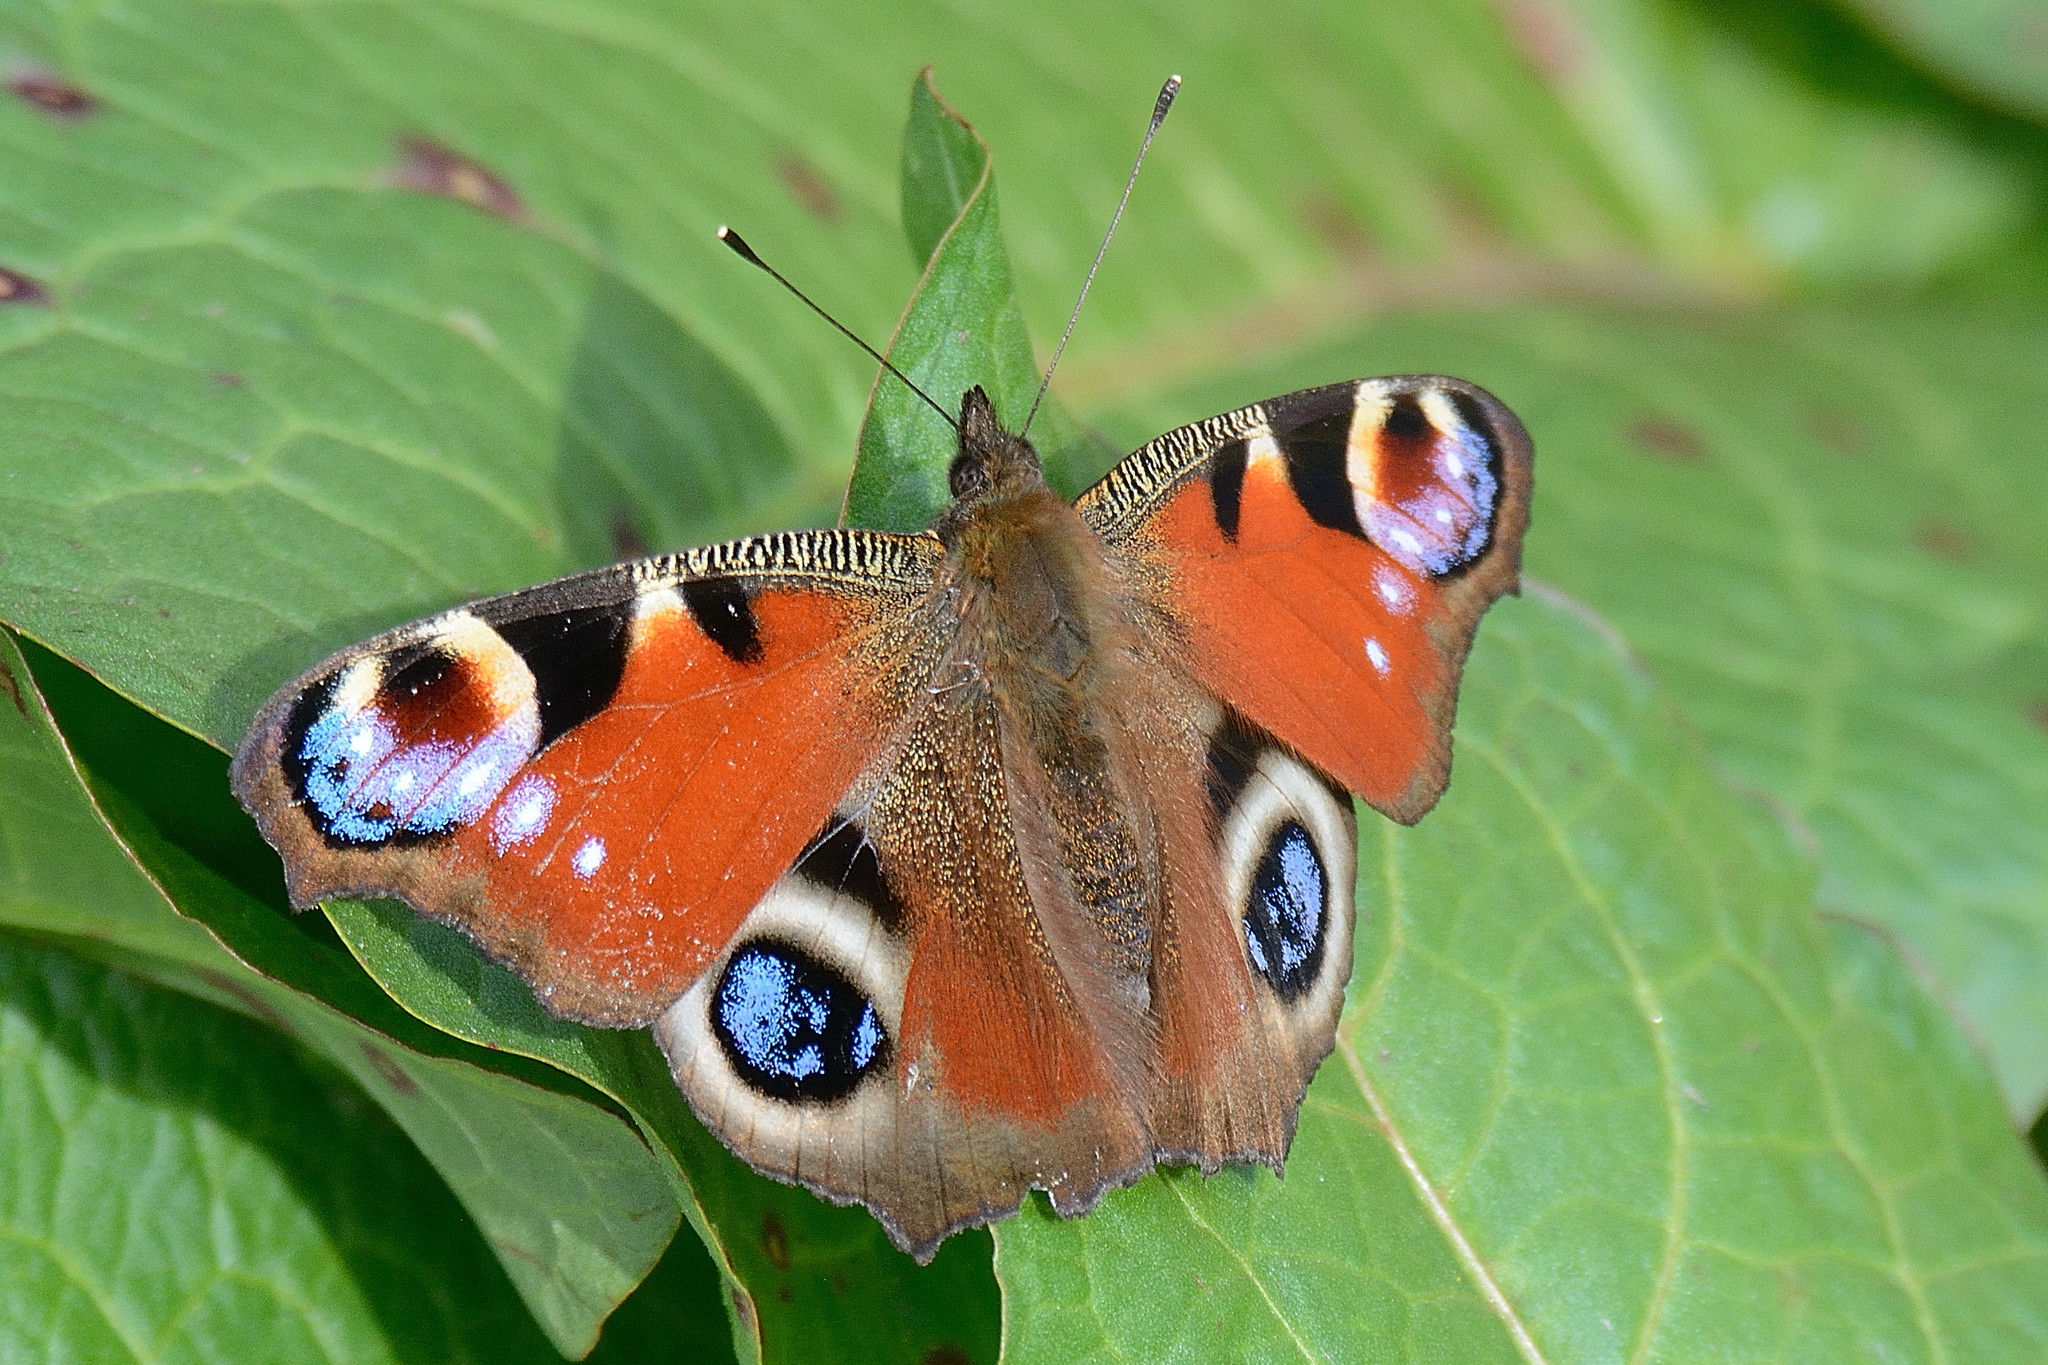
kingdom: Animalia
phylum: Arthropoda
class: Insecta
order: Lepidoptera
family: Nymphalidae
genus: Aglais
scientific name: Aglais io
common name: Peacock
